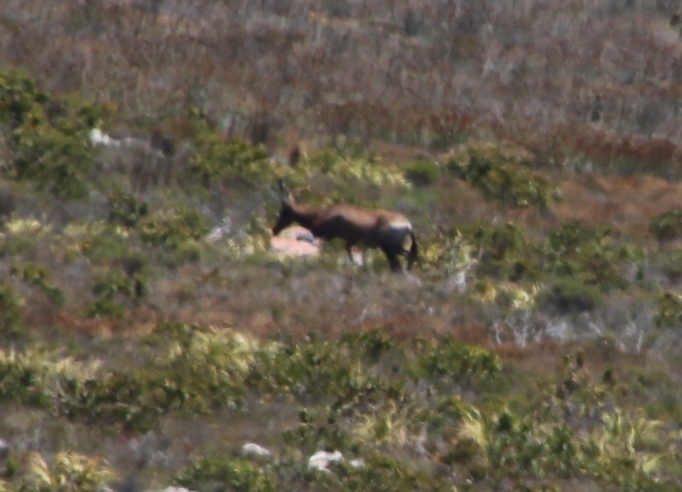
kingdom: Animalia
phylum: Chordata
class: Mammalia
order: Artiodactyla
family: Bovidae
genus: Alcelaphus
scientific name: Alcelaphus caama
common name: Red hartebeest
